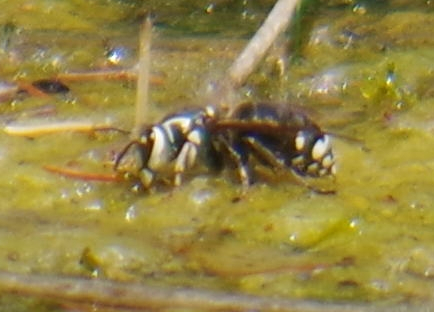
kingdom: Animalia
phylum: Arthropoda
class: Insecta
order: Hymenoptera
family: Vespidae
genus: Dolichovespula
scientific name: Dolichovespula maculata
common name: Bald-faced hornet
